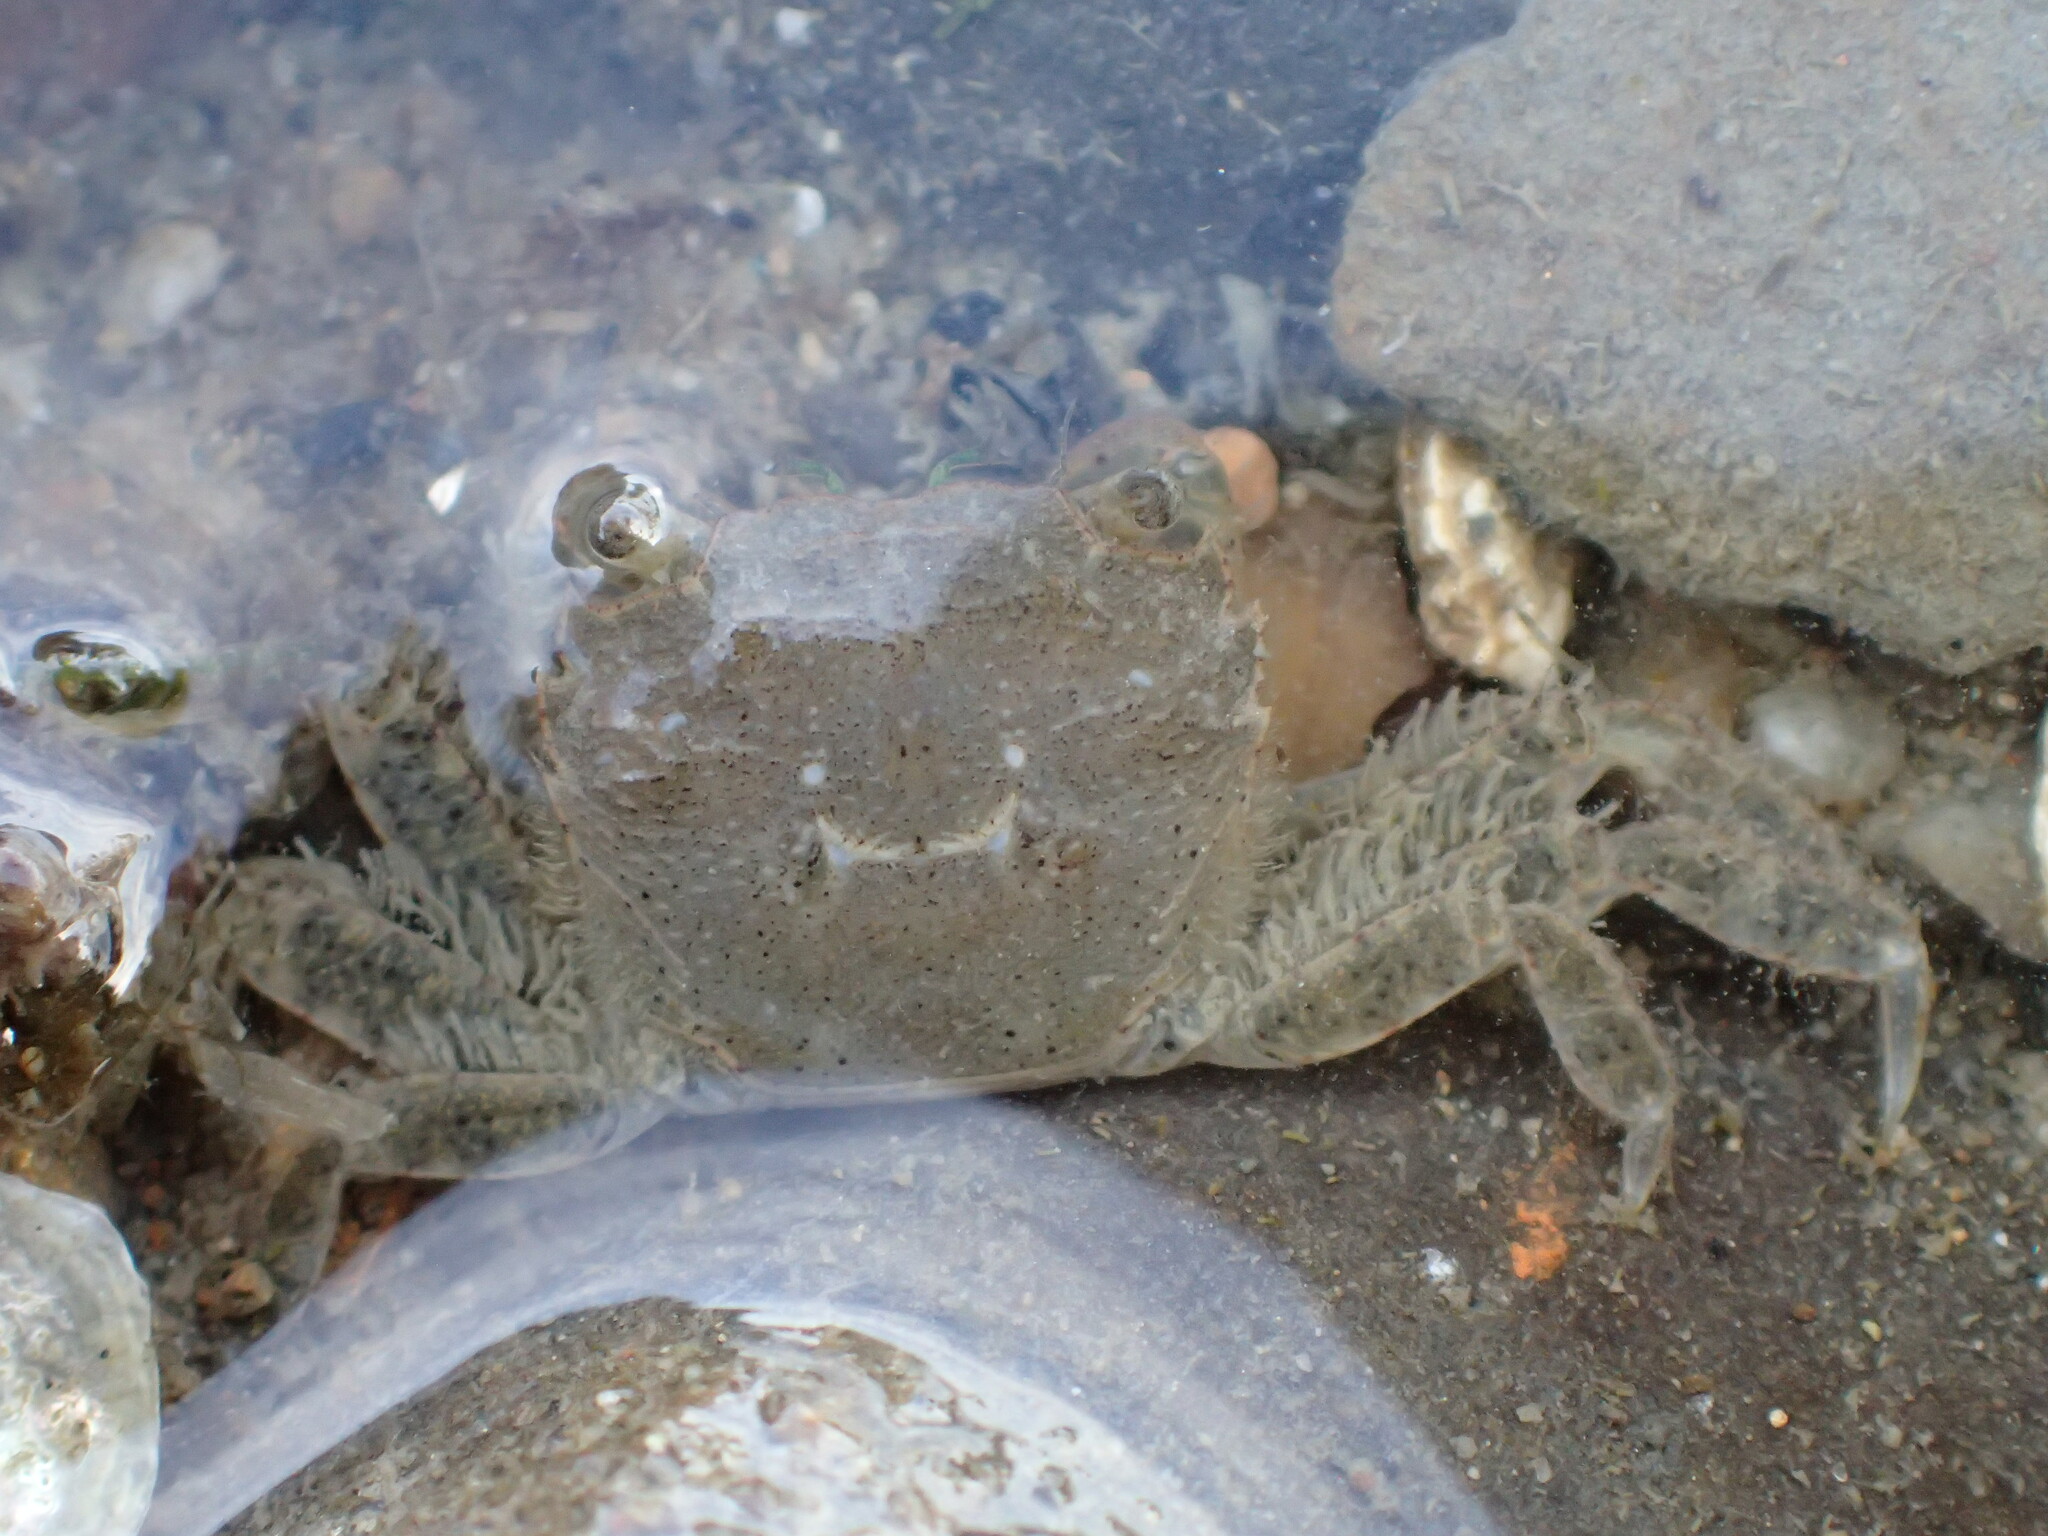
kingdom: Animalia
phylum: Arthropoda
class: Malacostraca
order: Decapoda
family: Varunidae
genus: Hemigrapsus
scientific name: Hemigrapsus oregonensis
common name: Yellow shore crab
